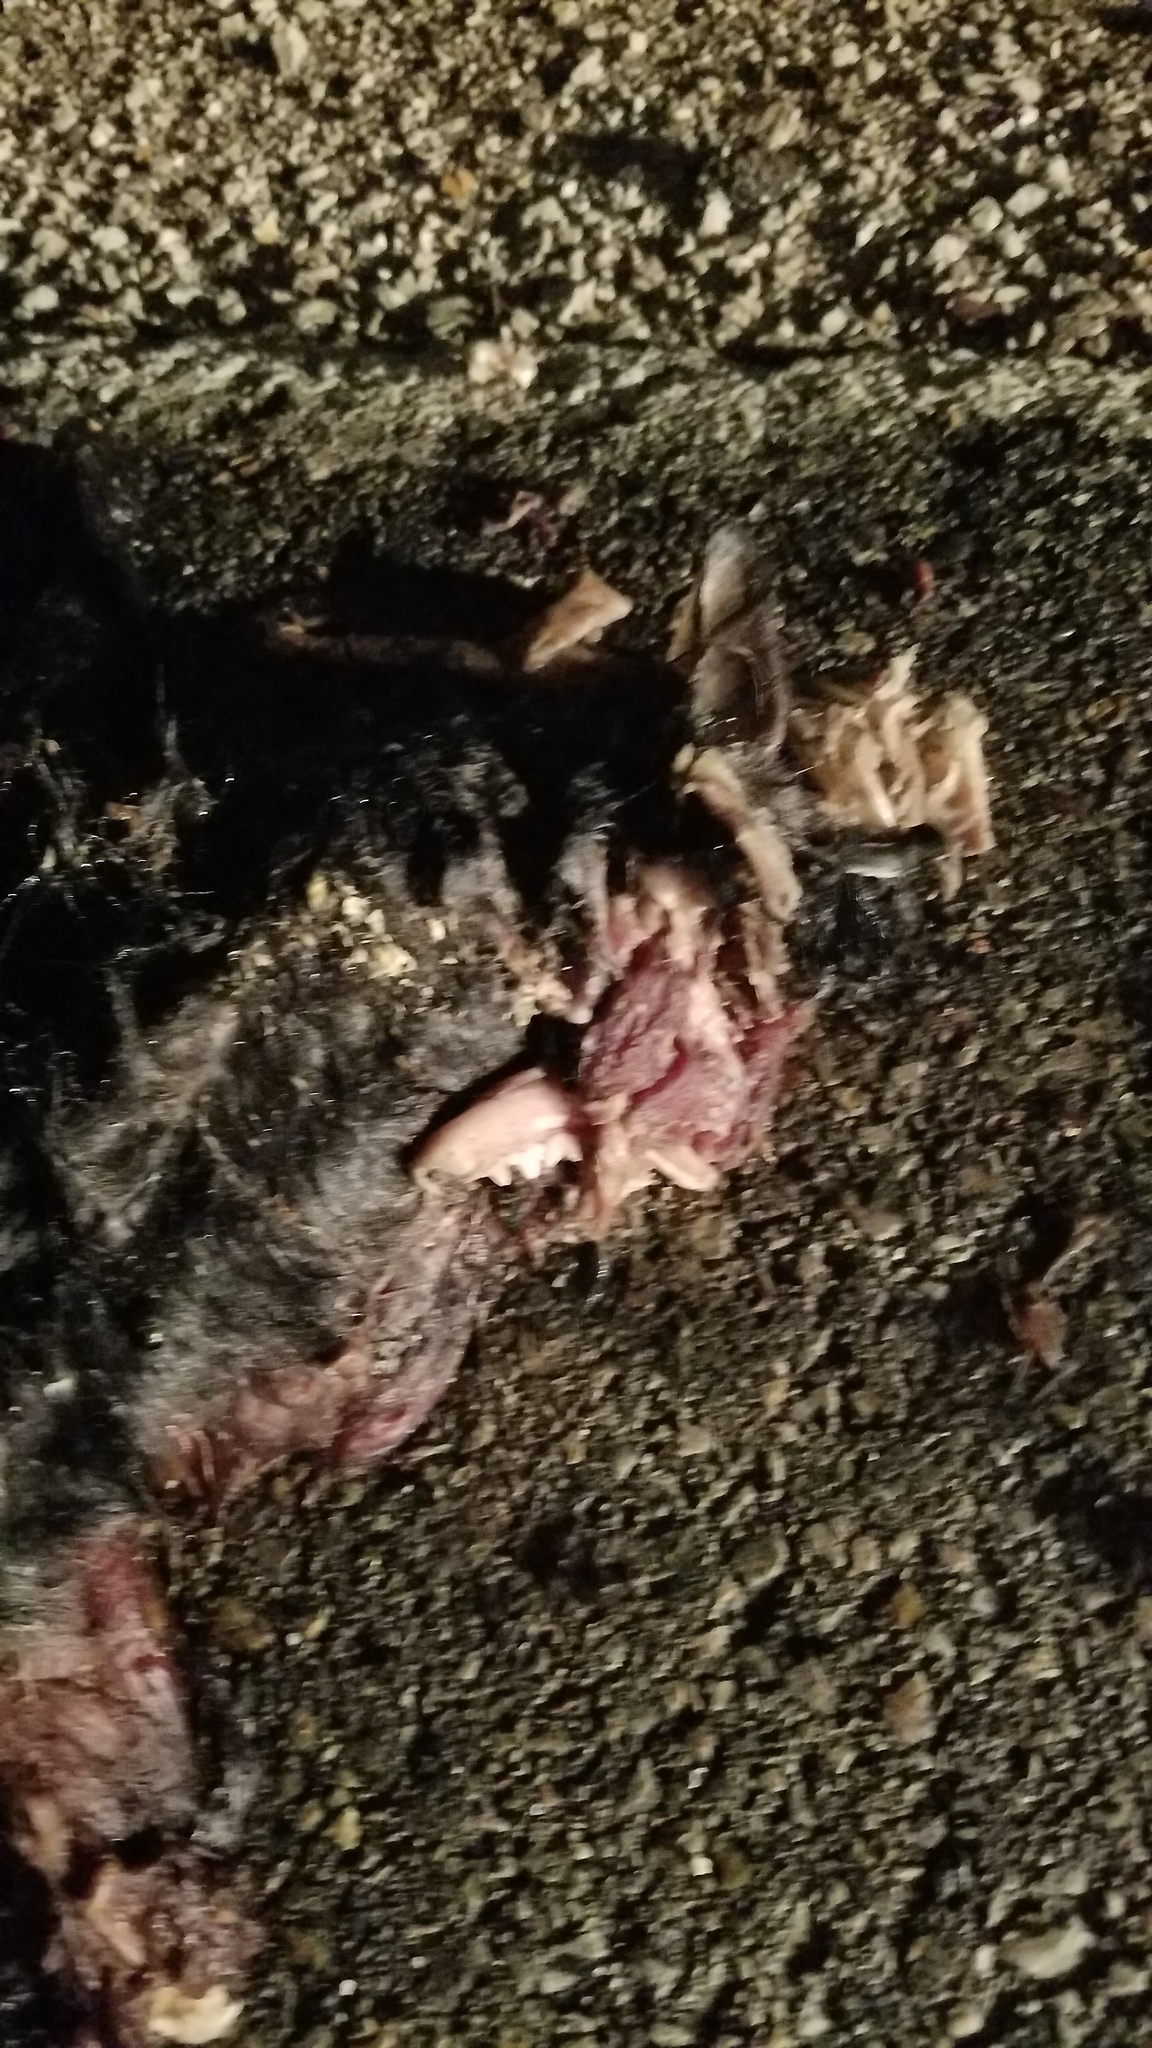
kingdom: Animalia
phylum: Chordata
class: Mammalia
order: Carnivora
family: Felidae
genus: Felis
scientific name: Felis catus
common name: Domestic cat
